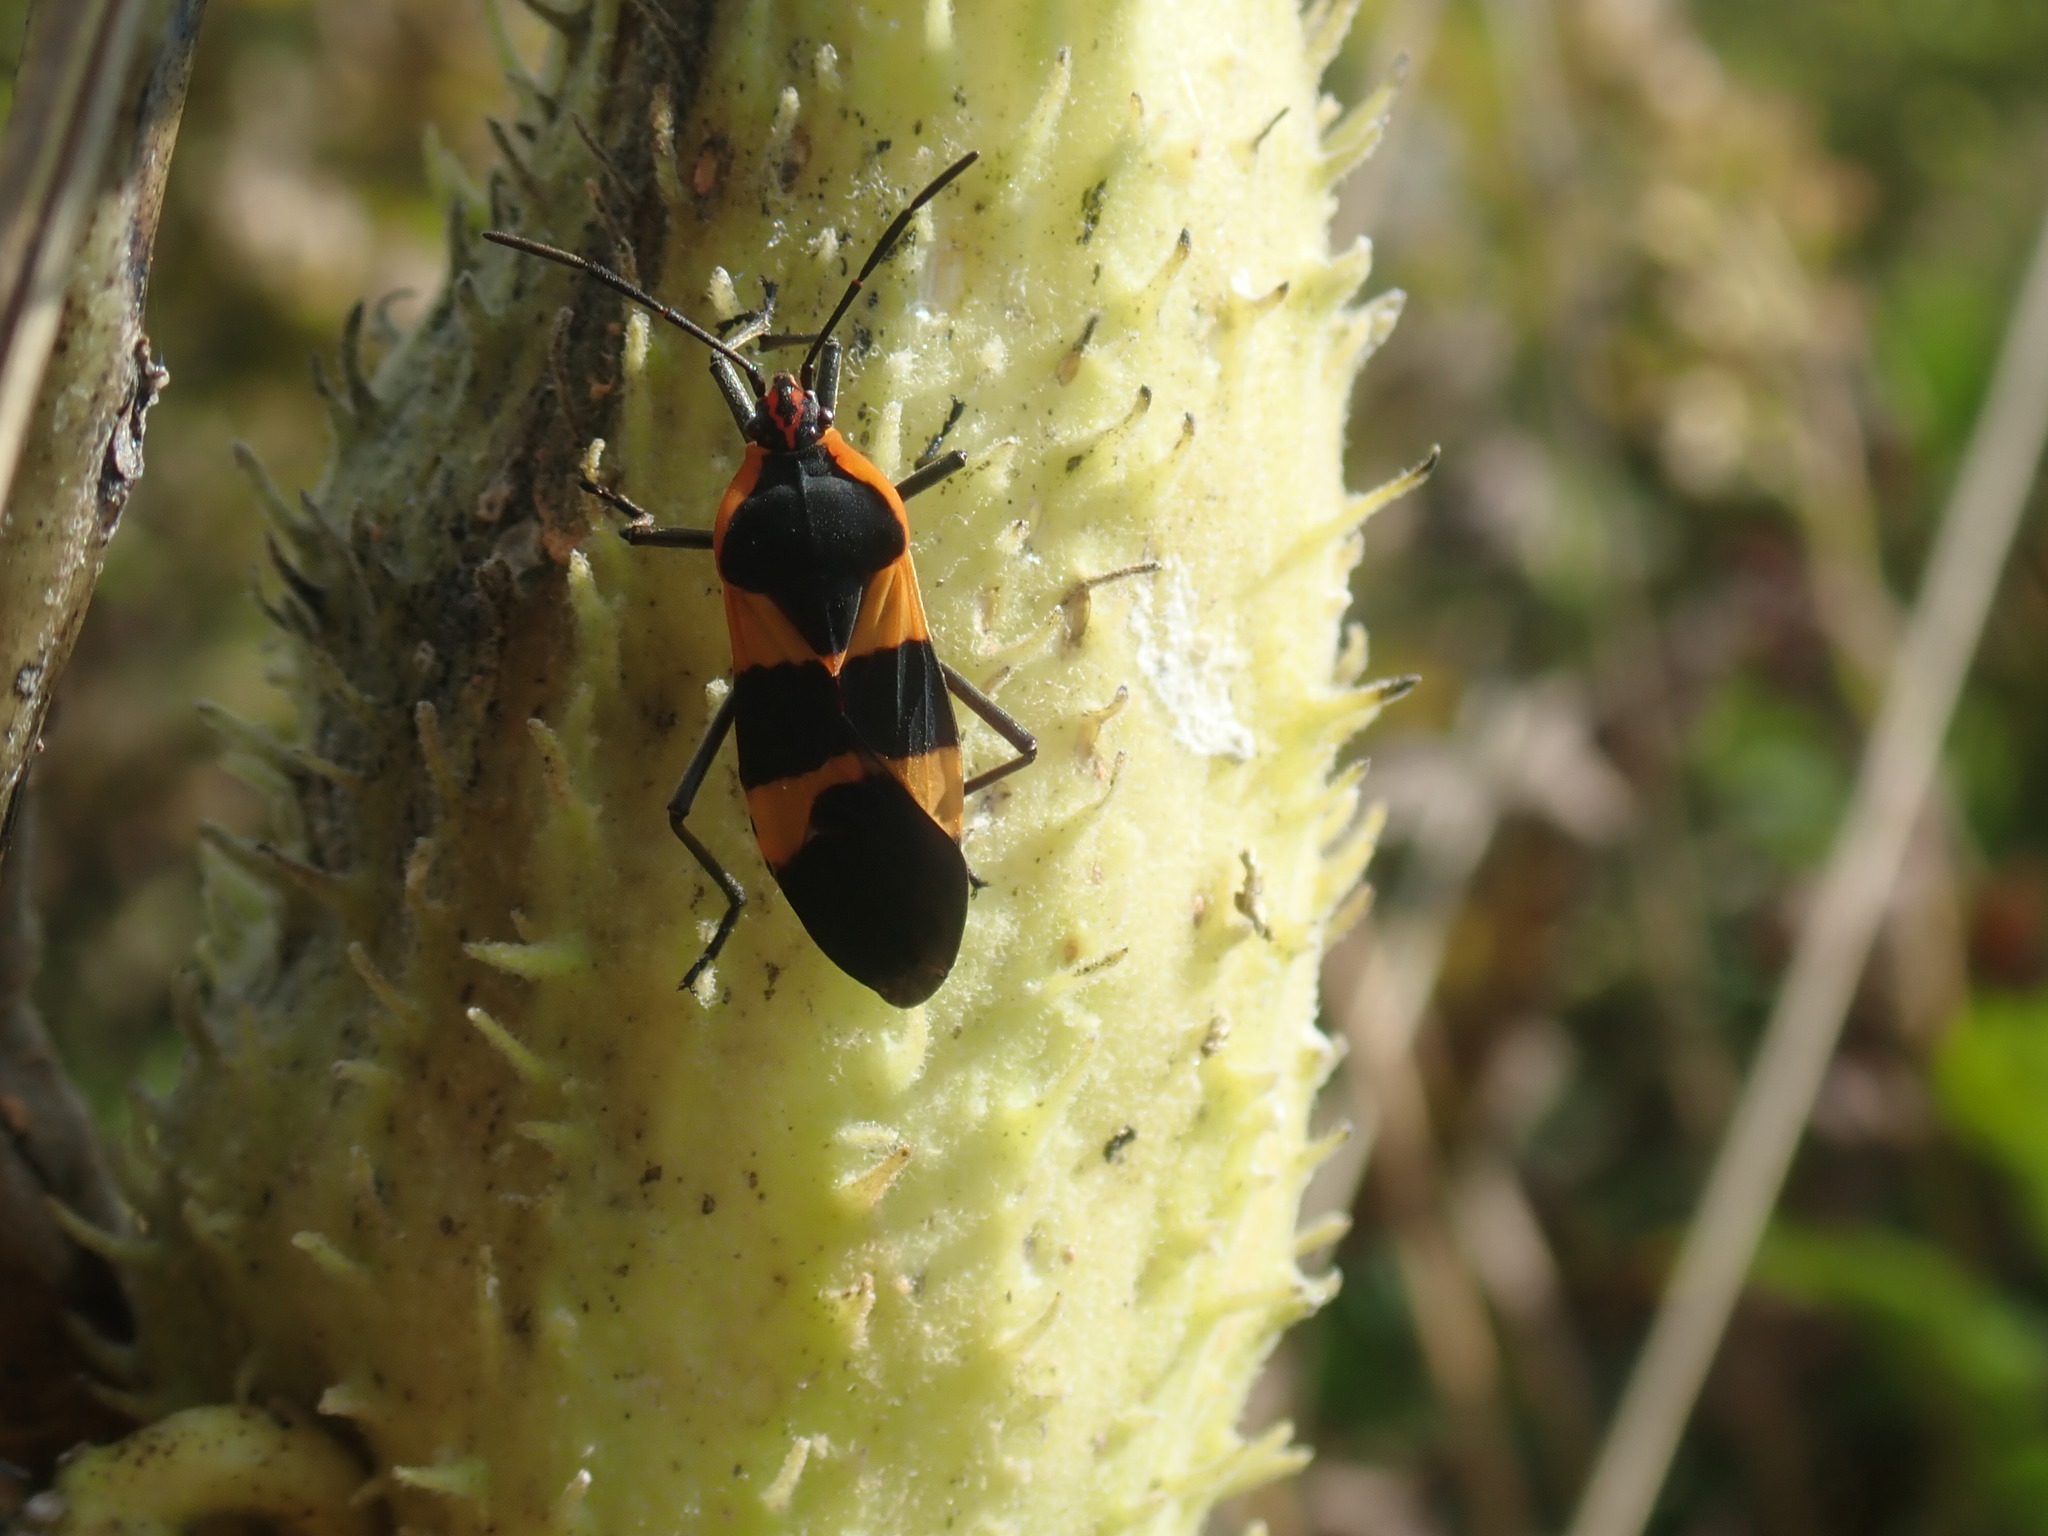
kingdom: Animalia
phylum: Arthropoda
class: Insecta
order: Hemiptera
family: Lygaeidae
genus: Oncopeltus
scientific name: Oncopeltus fasciatus
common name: Large milkweed bug
